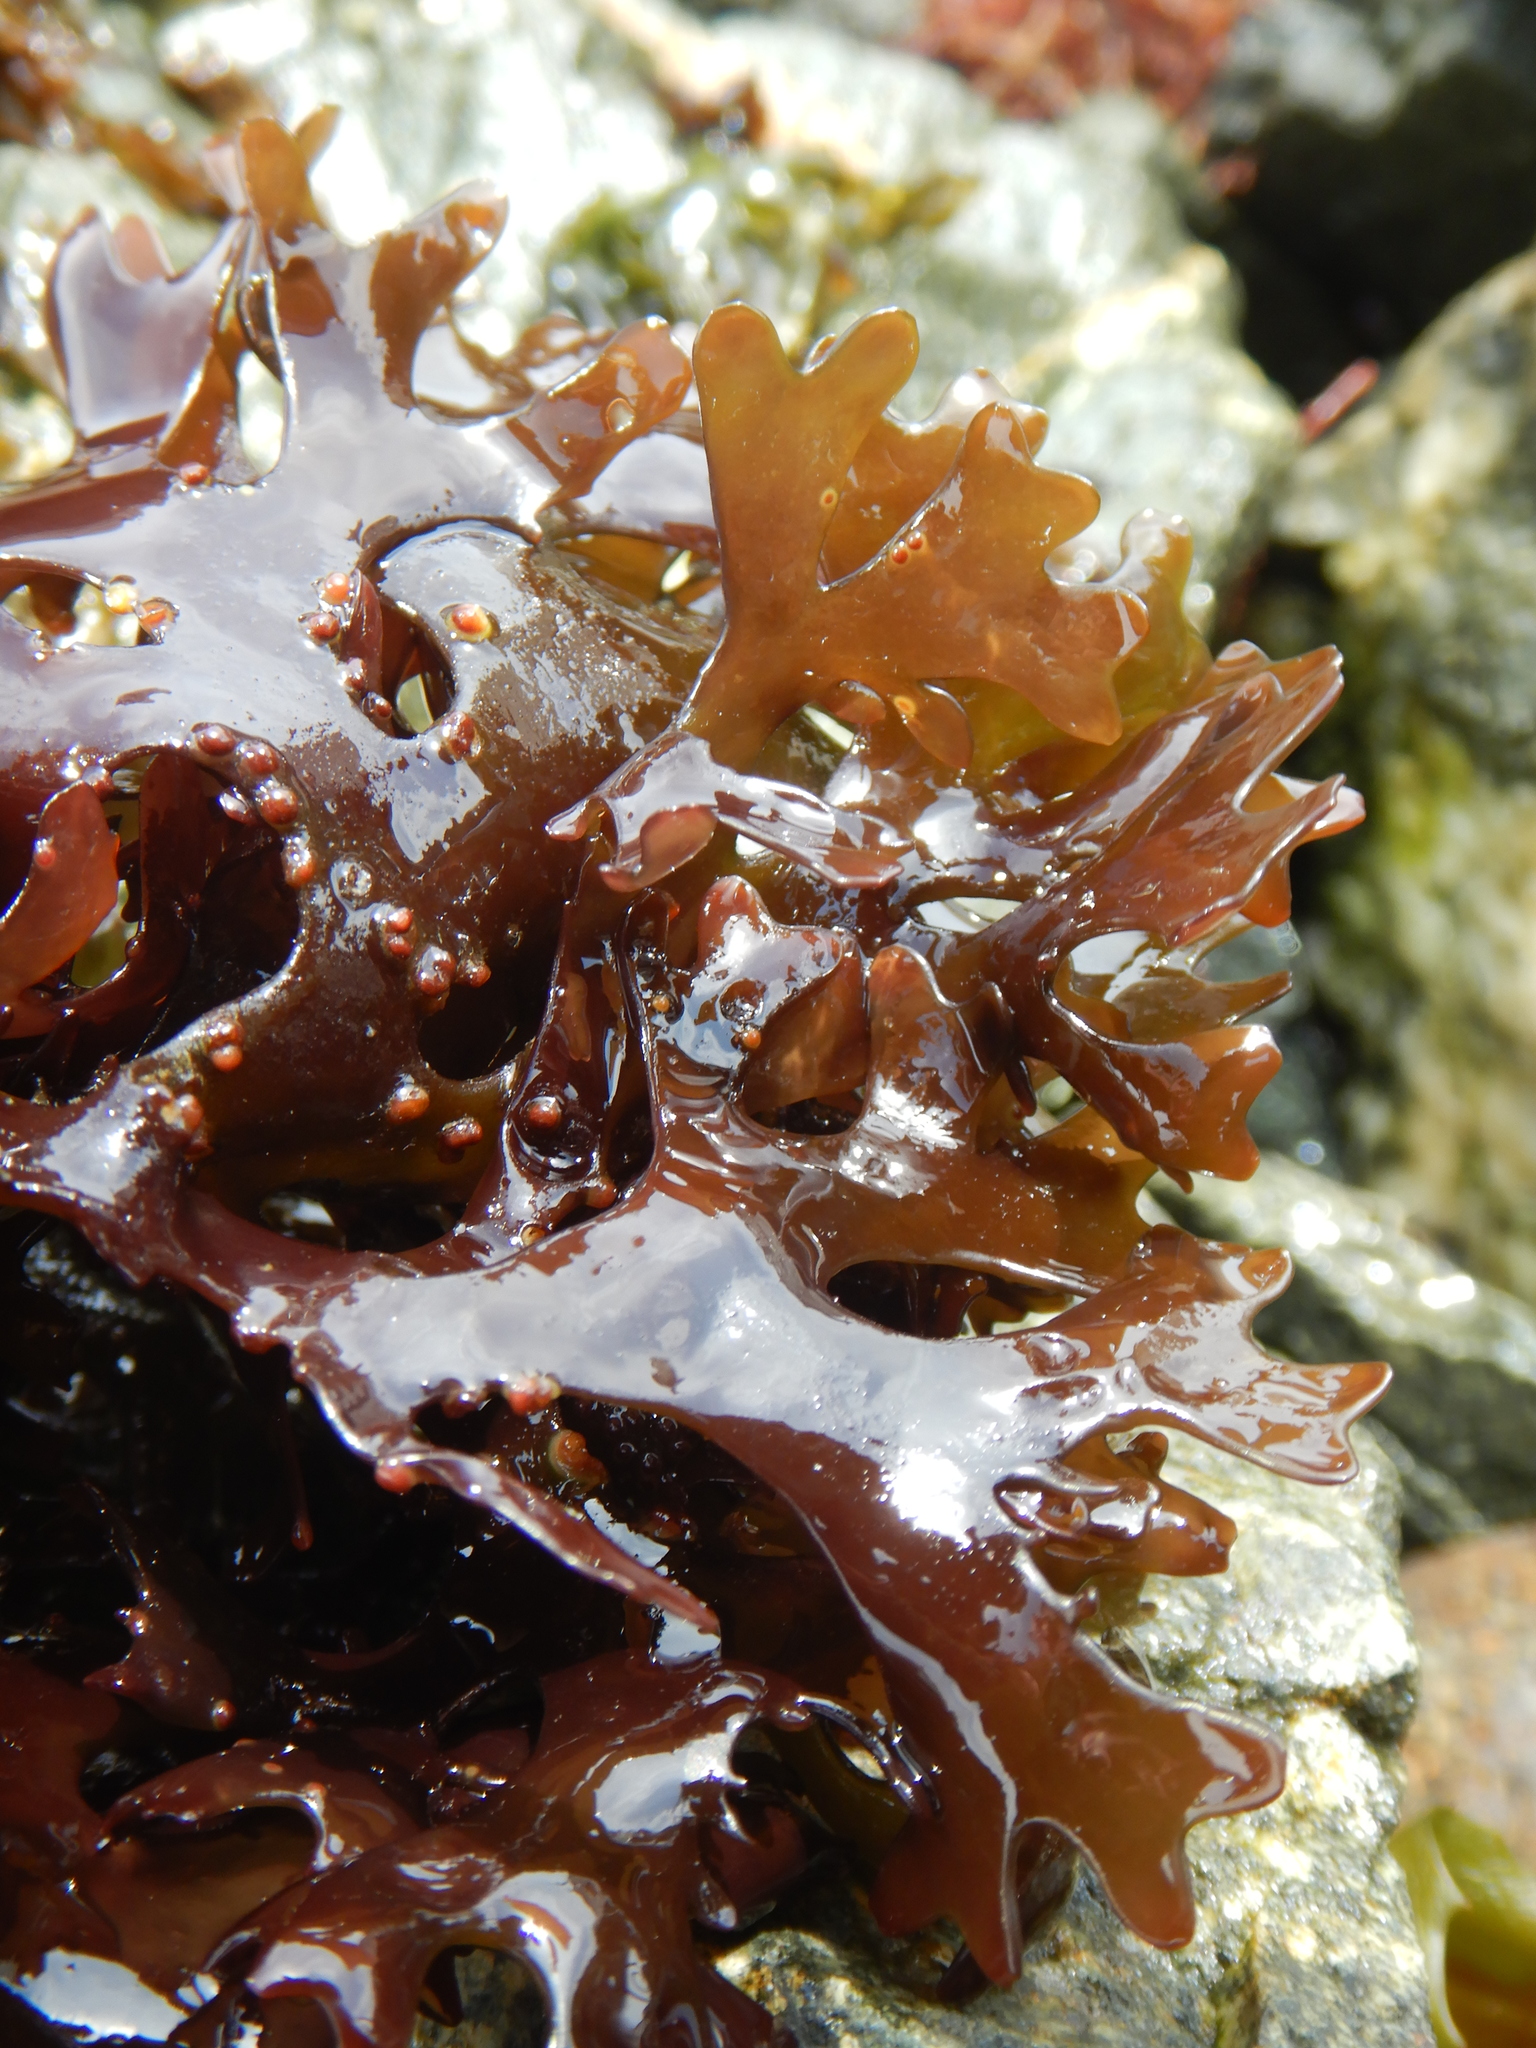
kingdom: Plantae
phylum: Rhodophyta
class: Florideophyceae
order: Gigartinales
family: Gigartinaceae
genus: Mazzaella
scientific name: Mazzaella
